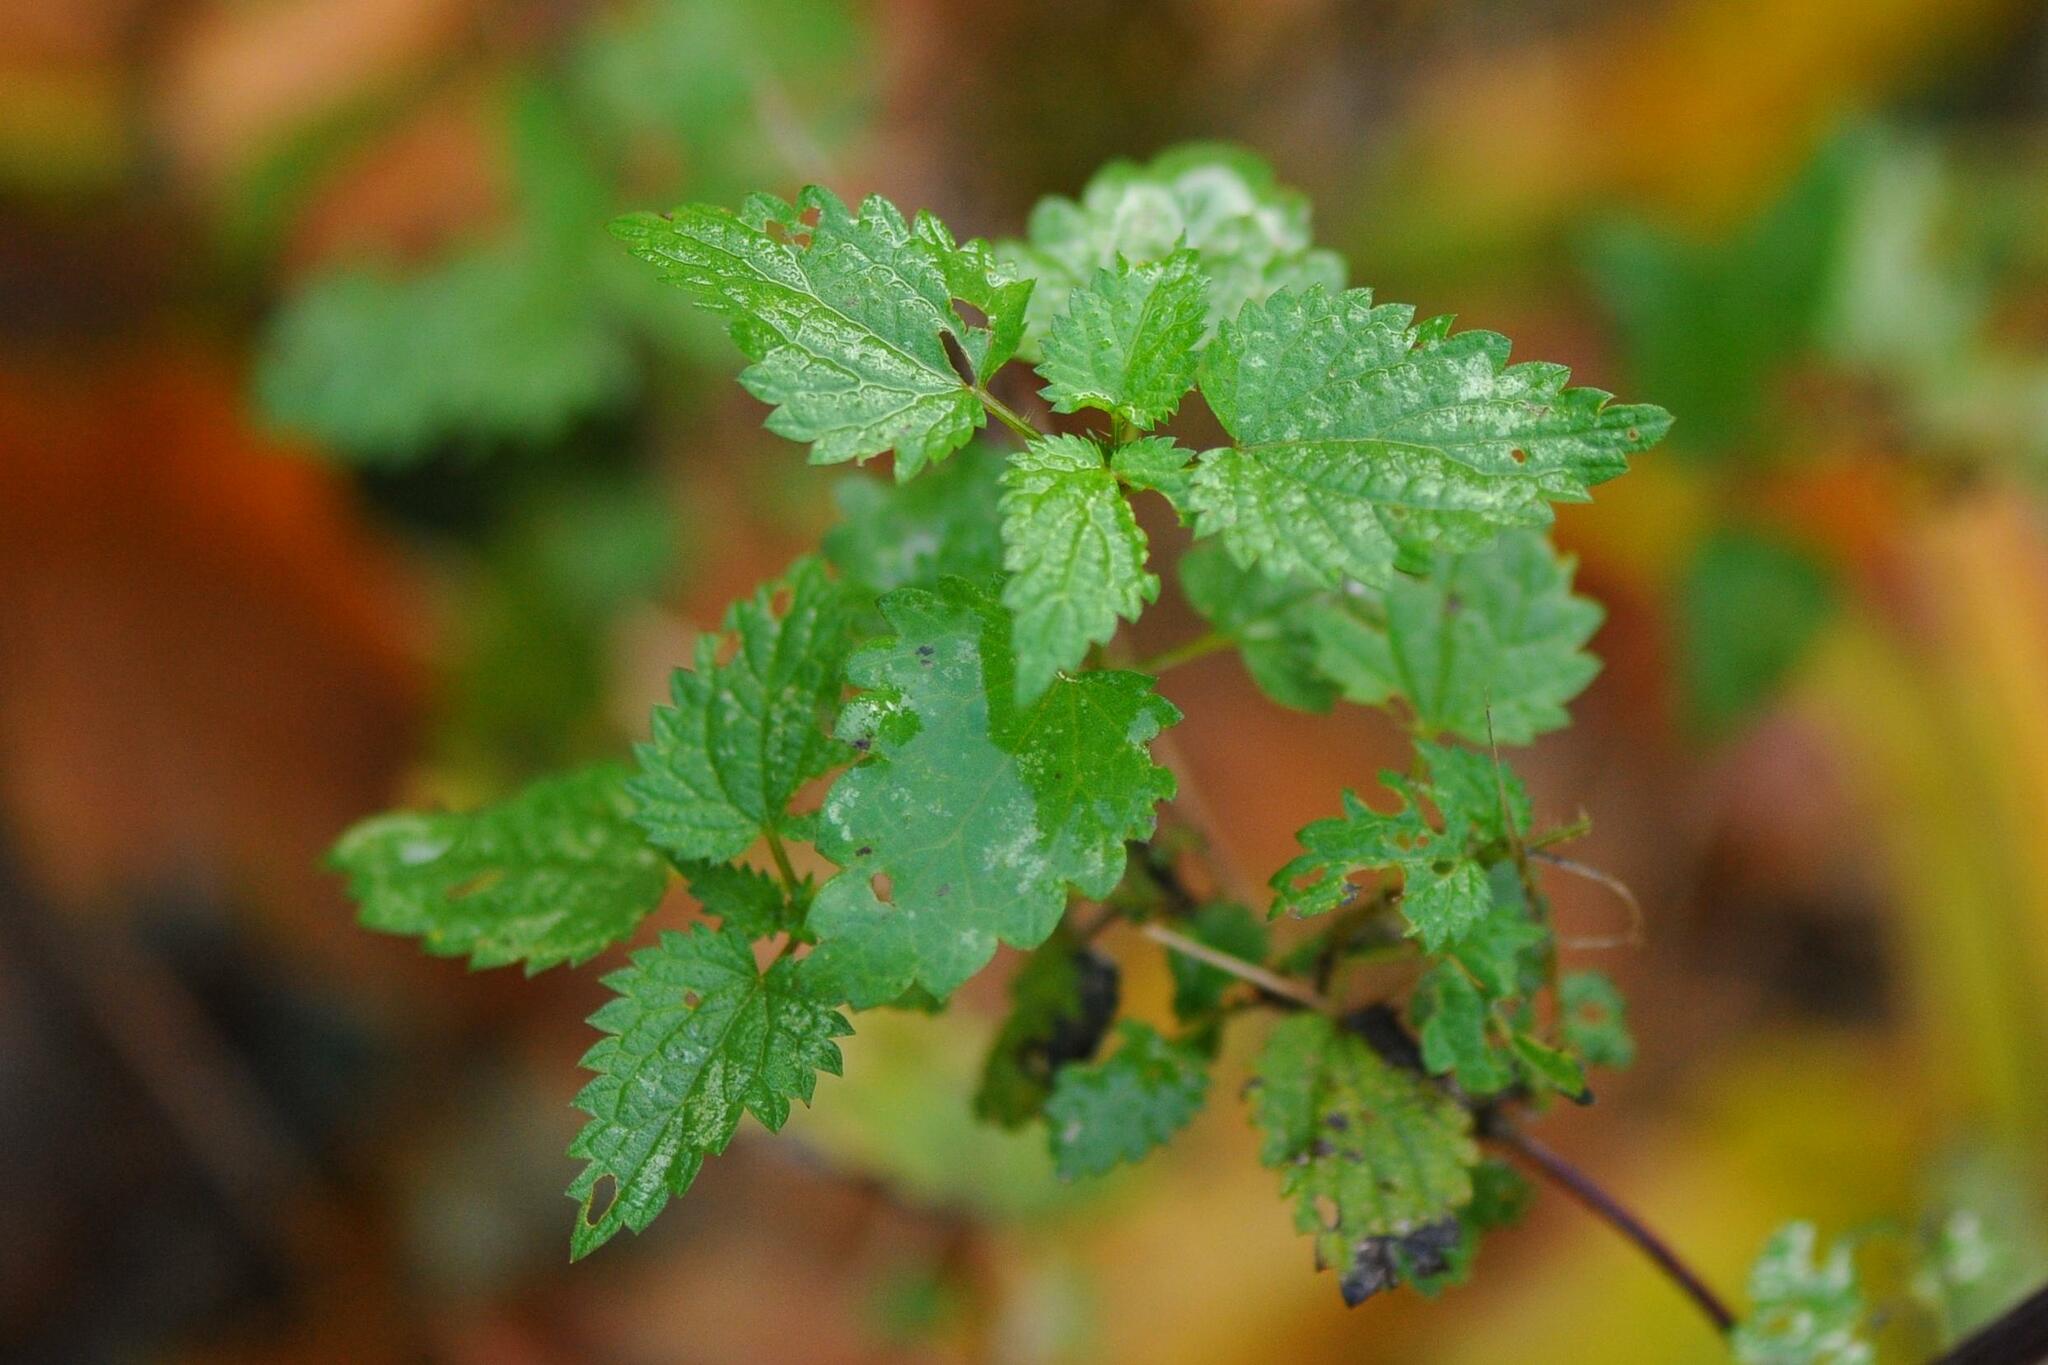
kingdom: Plantae
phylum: Tracheophyta
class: Magnoliopsida
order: Rosales
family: Urticaceae
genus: Urtica
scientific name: Urtica dioica
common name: Common nettle
